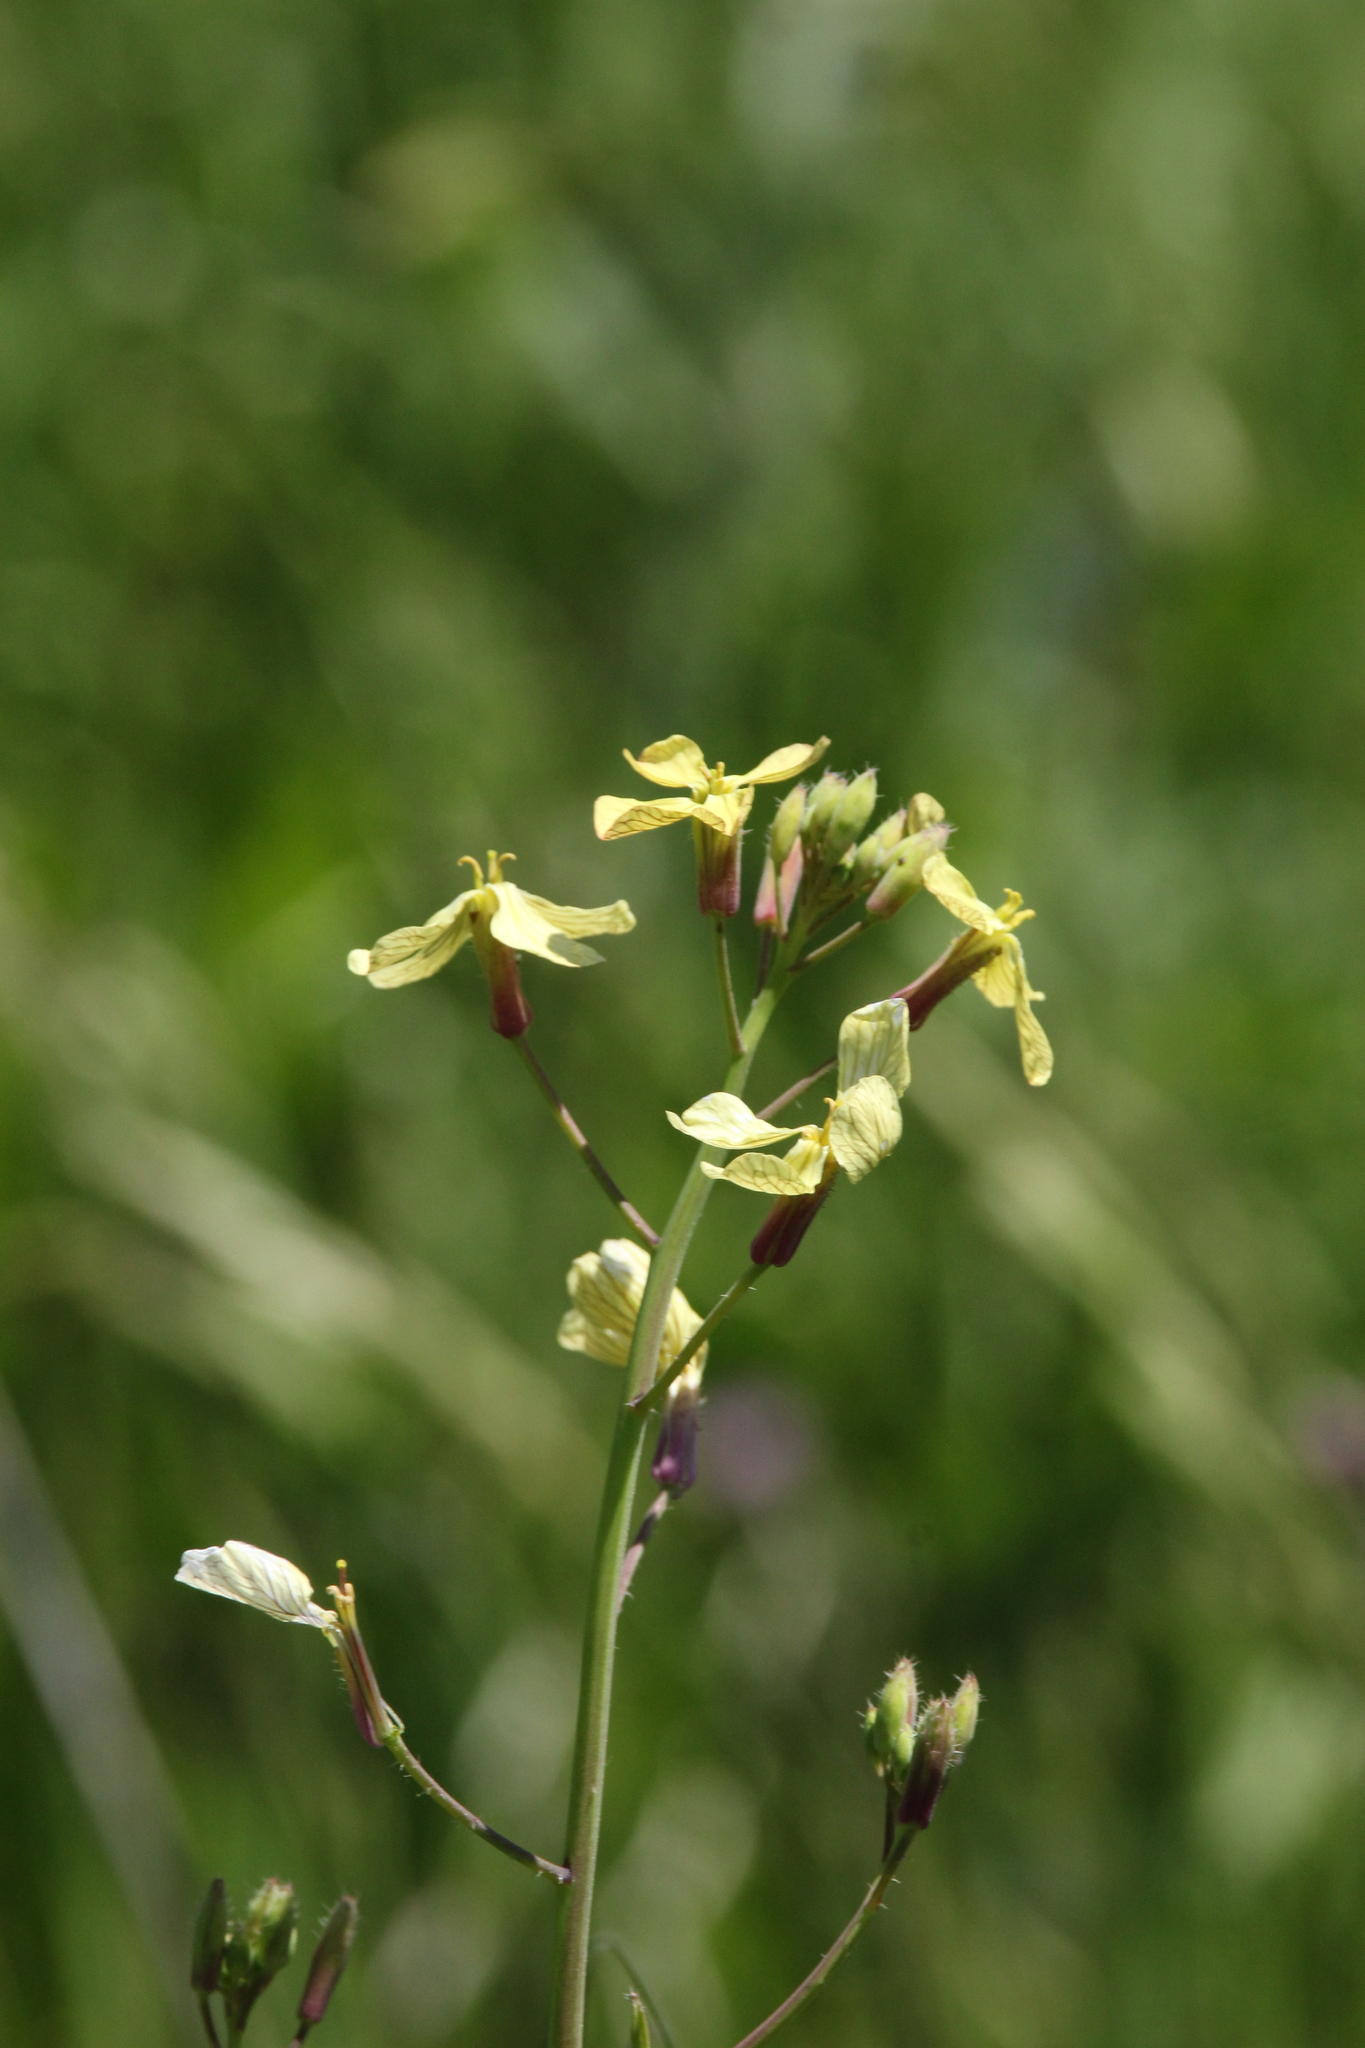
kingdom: Plantae
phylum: Tracheophyta
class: Magnoliopsida
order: Brassicales
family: Brassicaceae
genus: Raphanus
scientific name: Raphanus raphanistrum
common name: Wild radish
